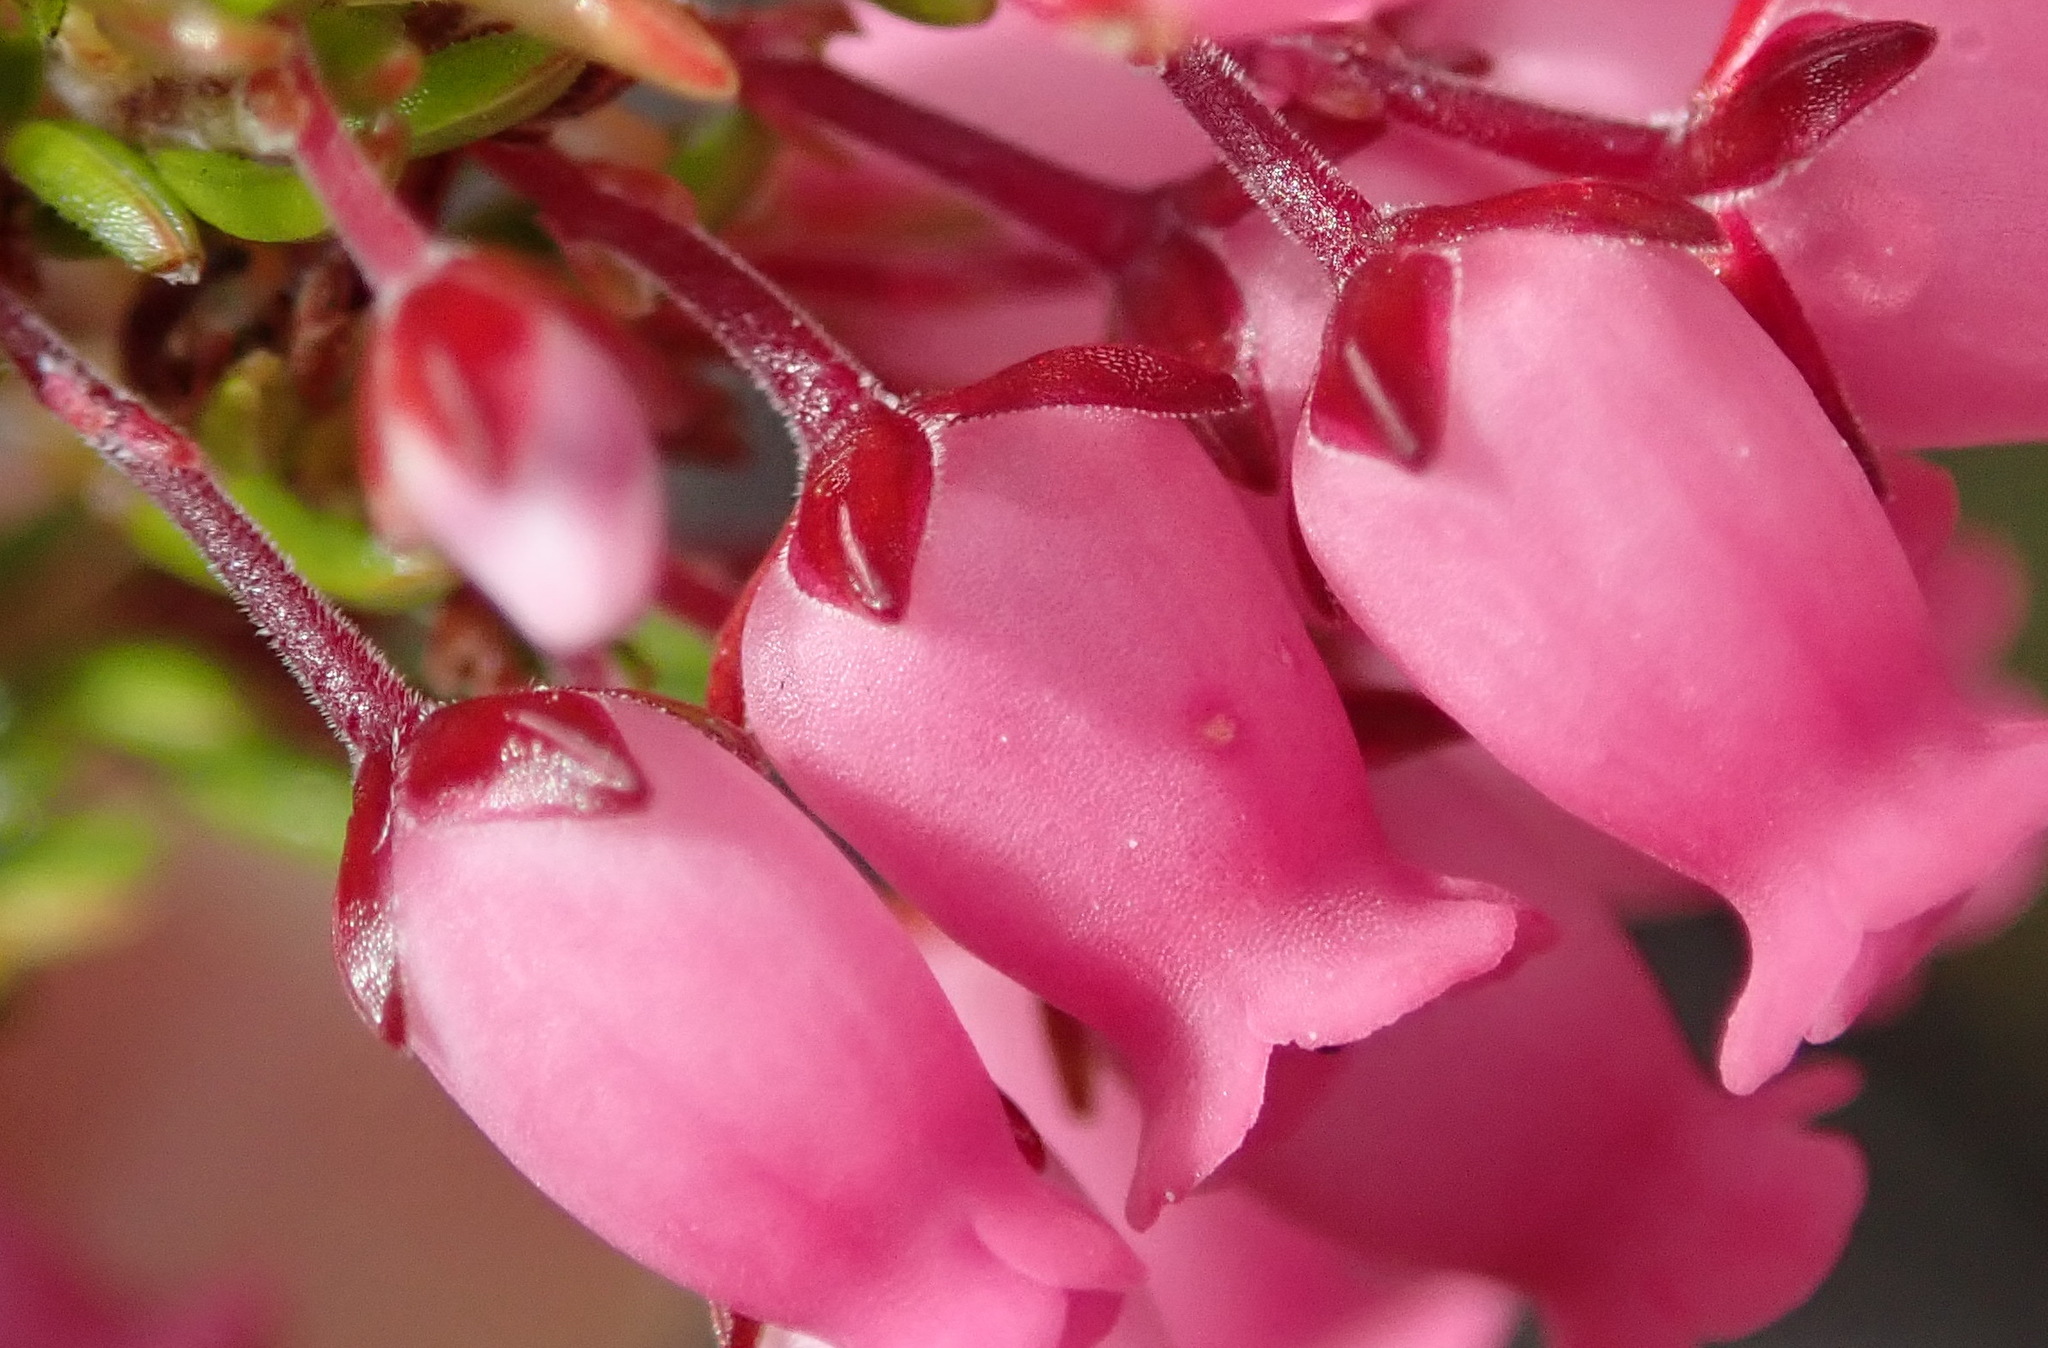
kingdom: Plantae
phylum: Tracheophyta
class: Magnoliopsida
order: Ericales
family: Ericaceae
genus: Erica
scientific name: Erica tenella
